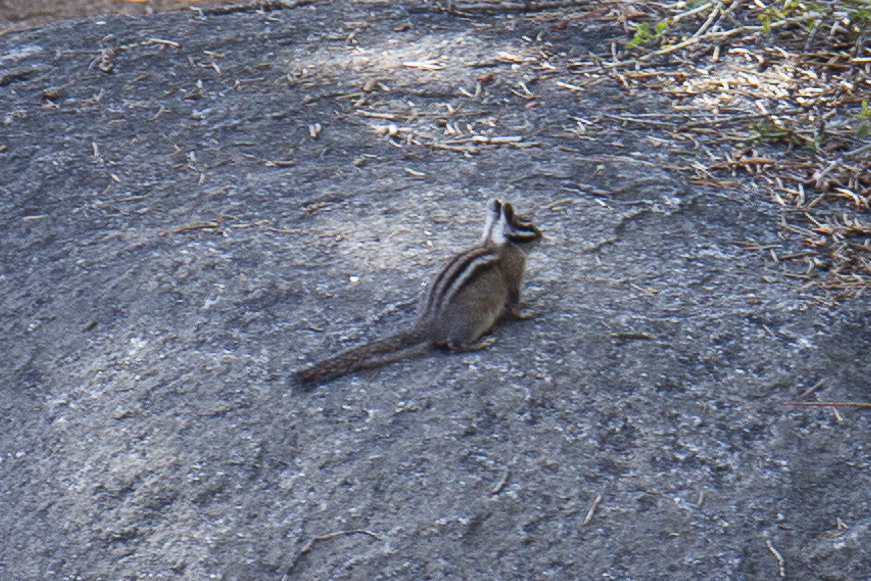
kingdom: Animalia
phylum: Chordata
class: Mammalia
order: Rodentia
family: Sciuridae
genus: Tamias
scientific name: Tamias quadrimaculatus
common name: Long-eared chipmunk
